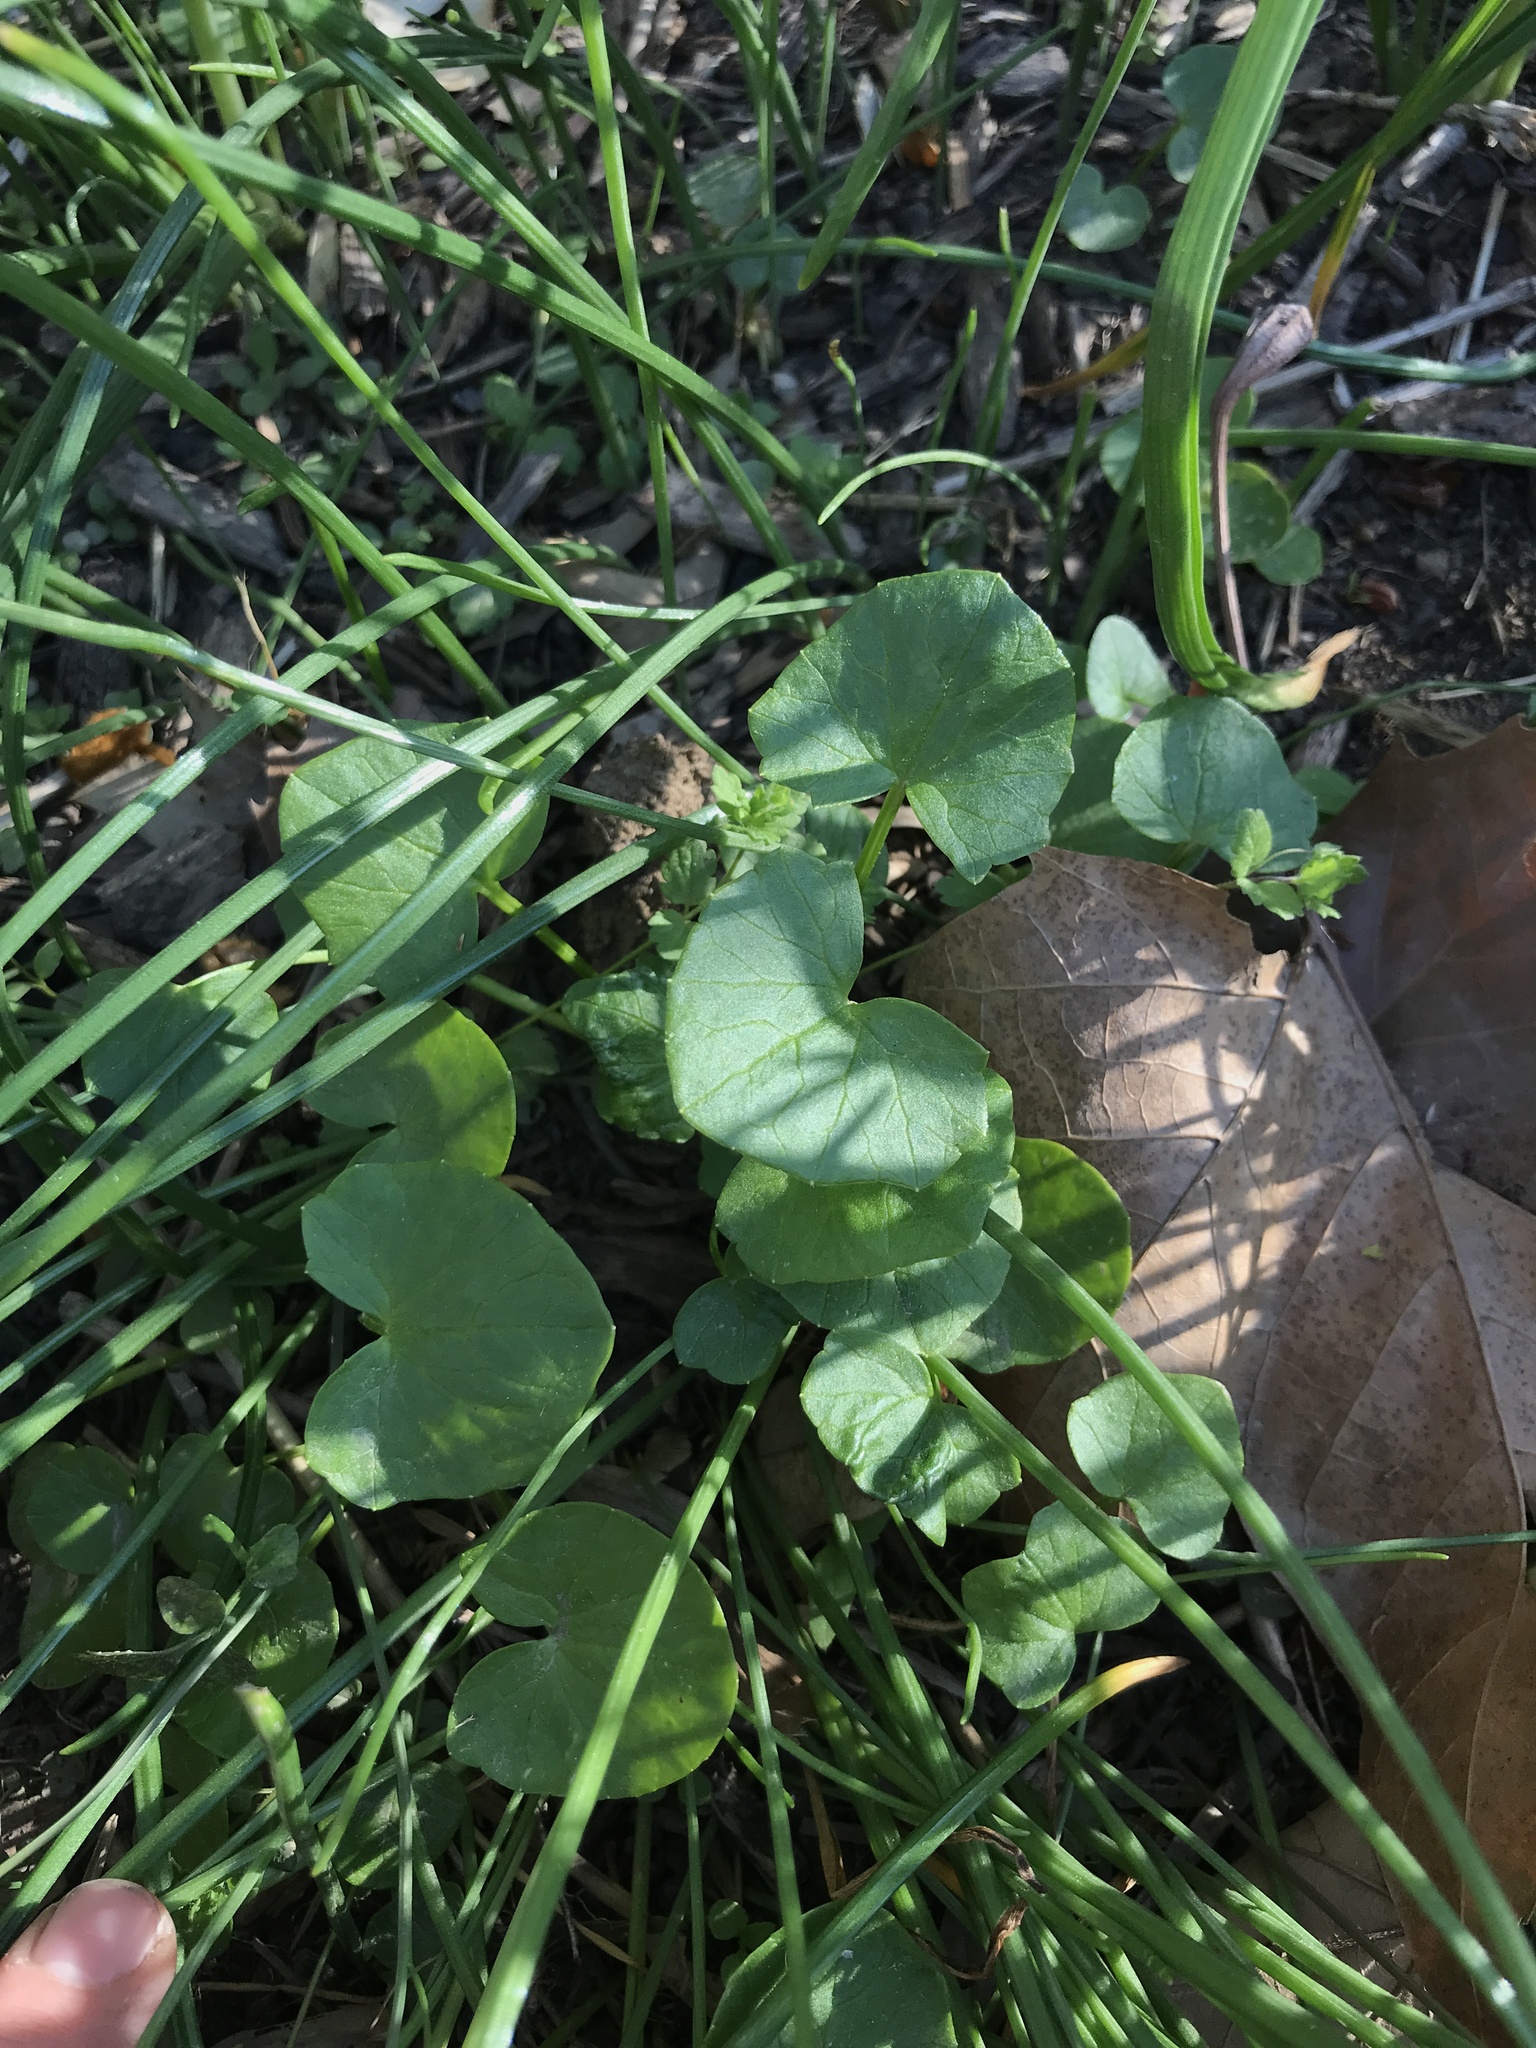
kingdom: Plantae
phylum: Tracheophyta
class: Magnoliopsida
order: Ranunculales
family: Ranunculaceae
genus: Ficaria
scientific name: Ficaria verna
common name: Lesser celandine
